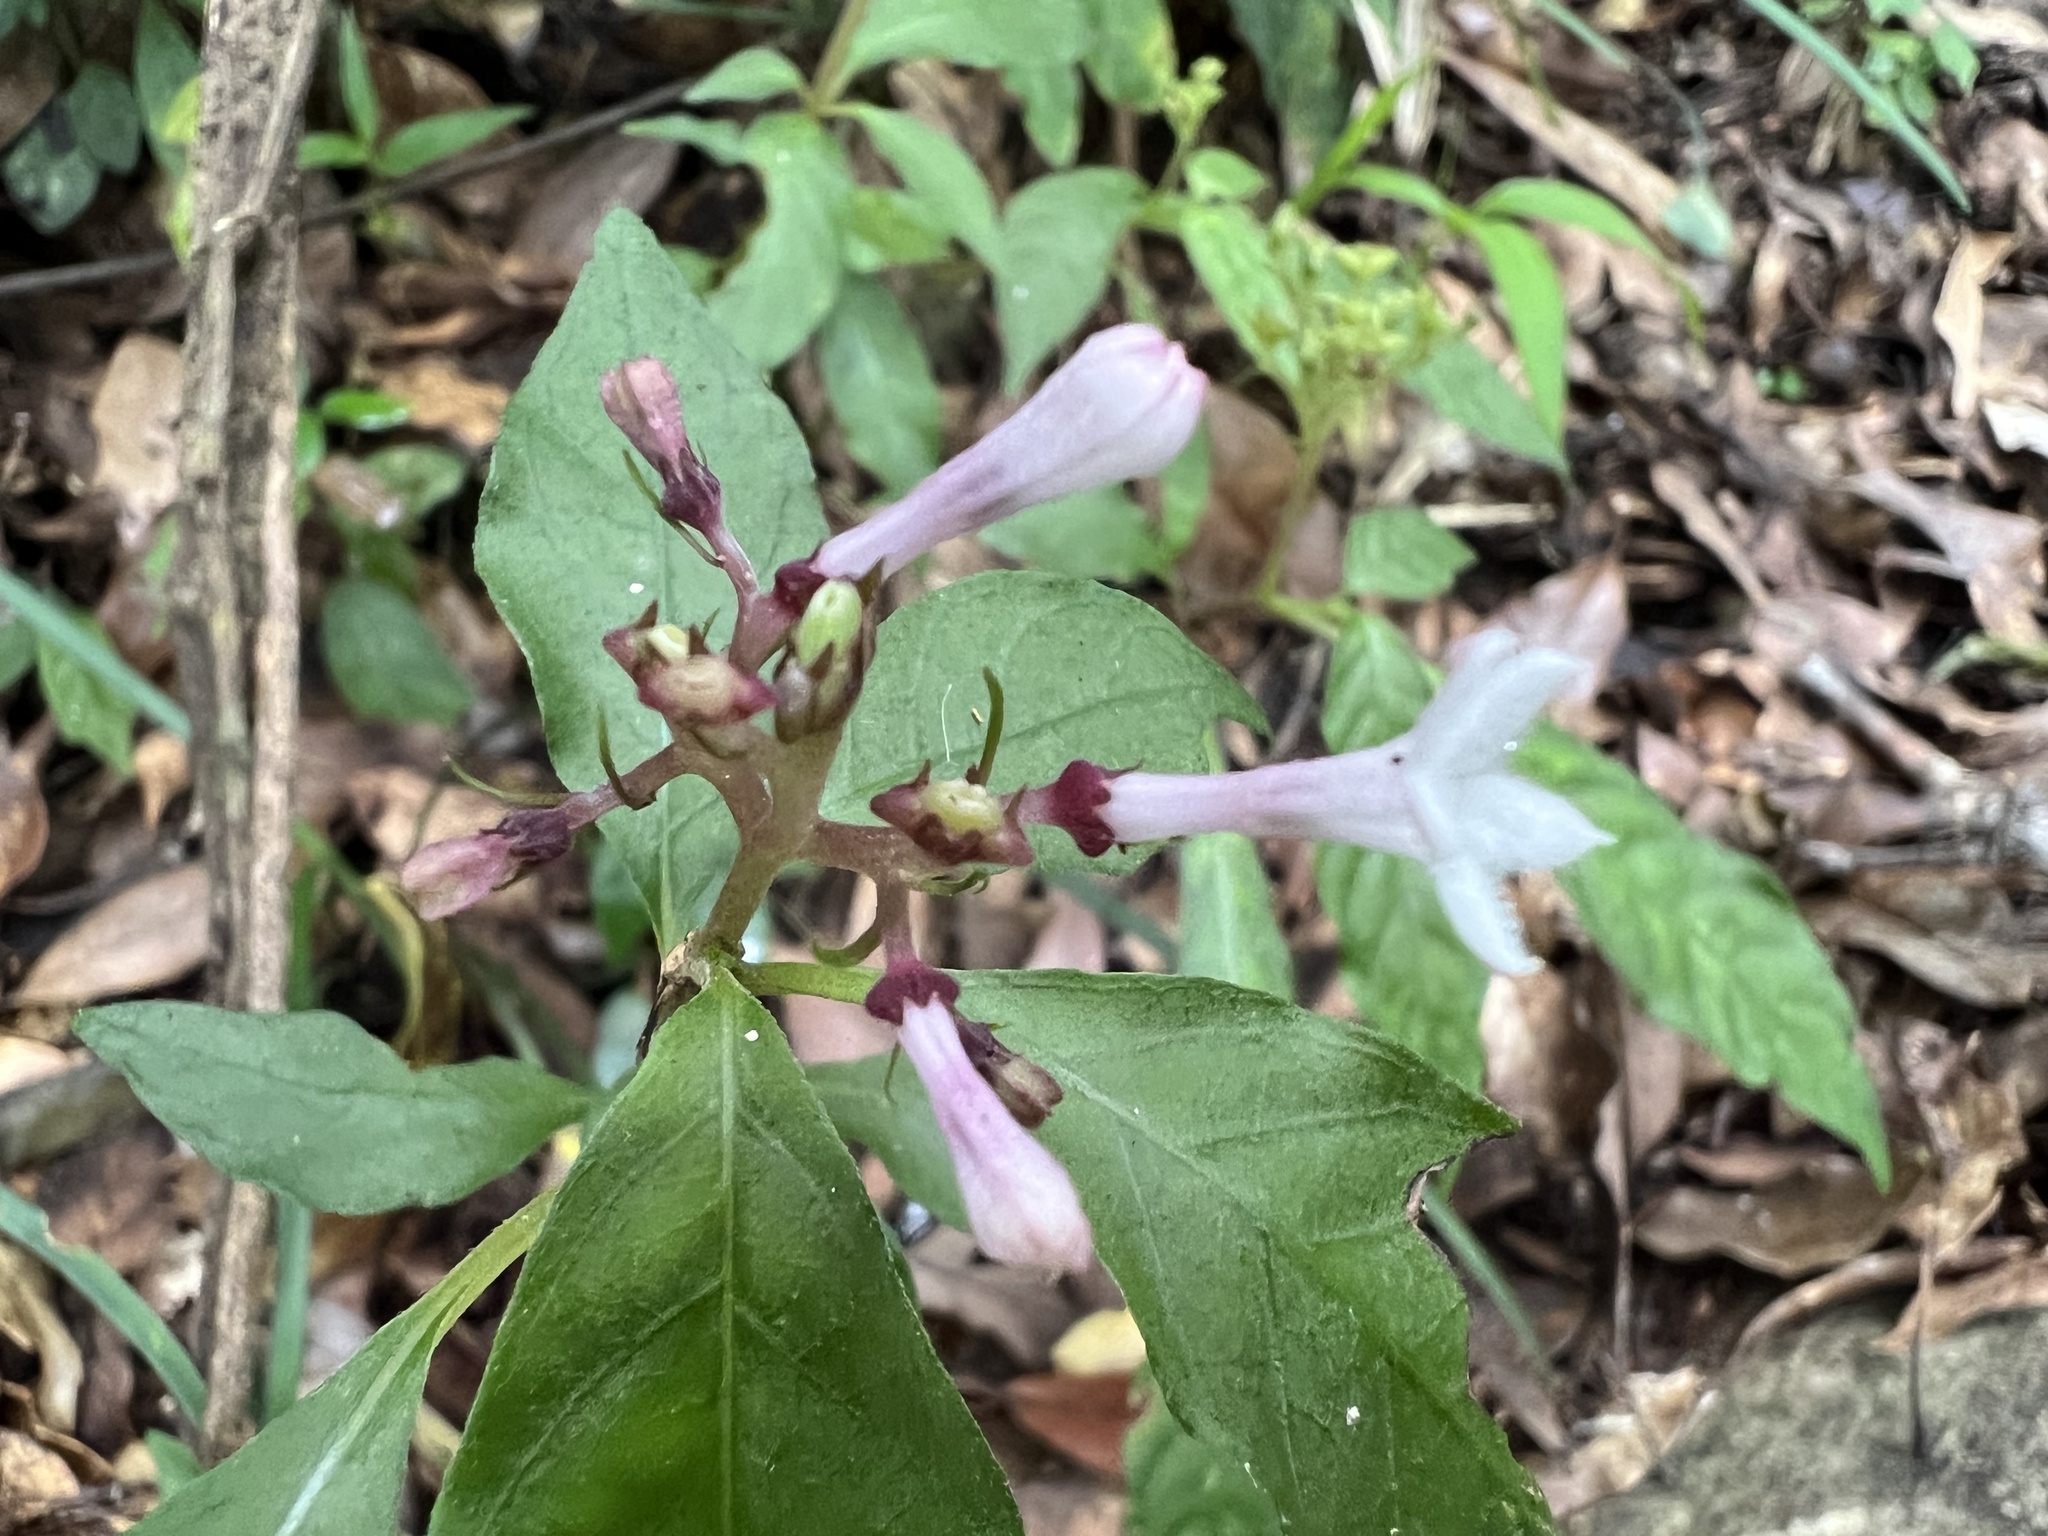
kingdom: Plantae
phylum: Tracheophyta
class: Magnoliopsida
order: Gentianales
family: Rubiaceae
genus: Ophiorrhiza
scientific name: Ophiorrhiza japonica
